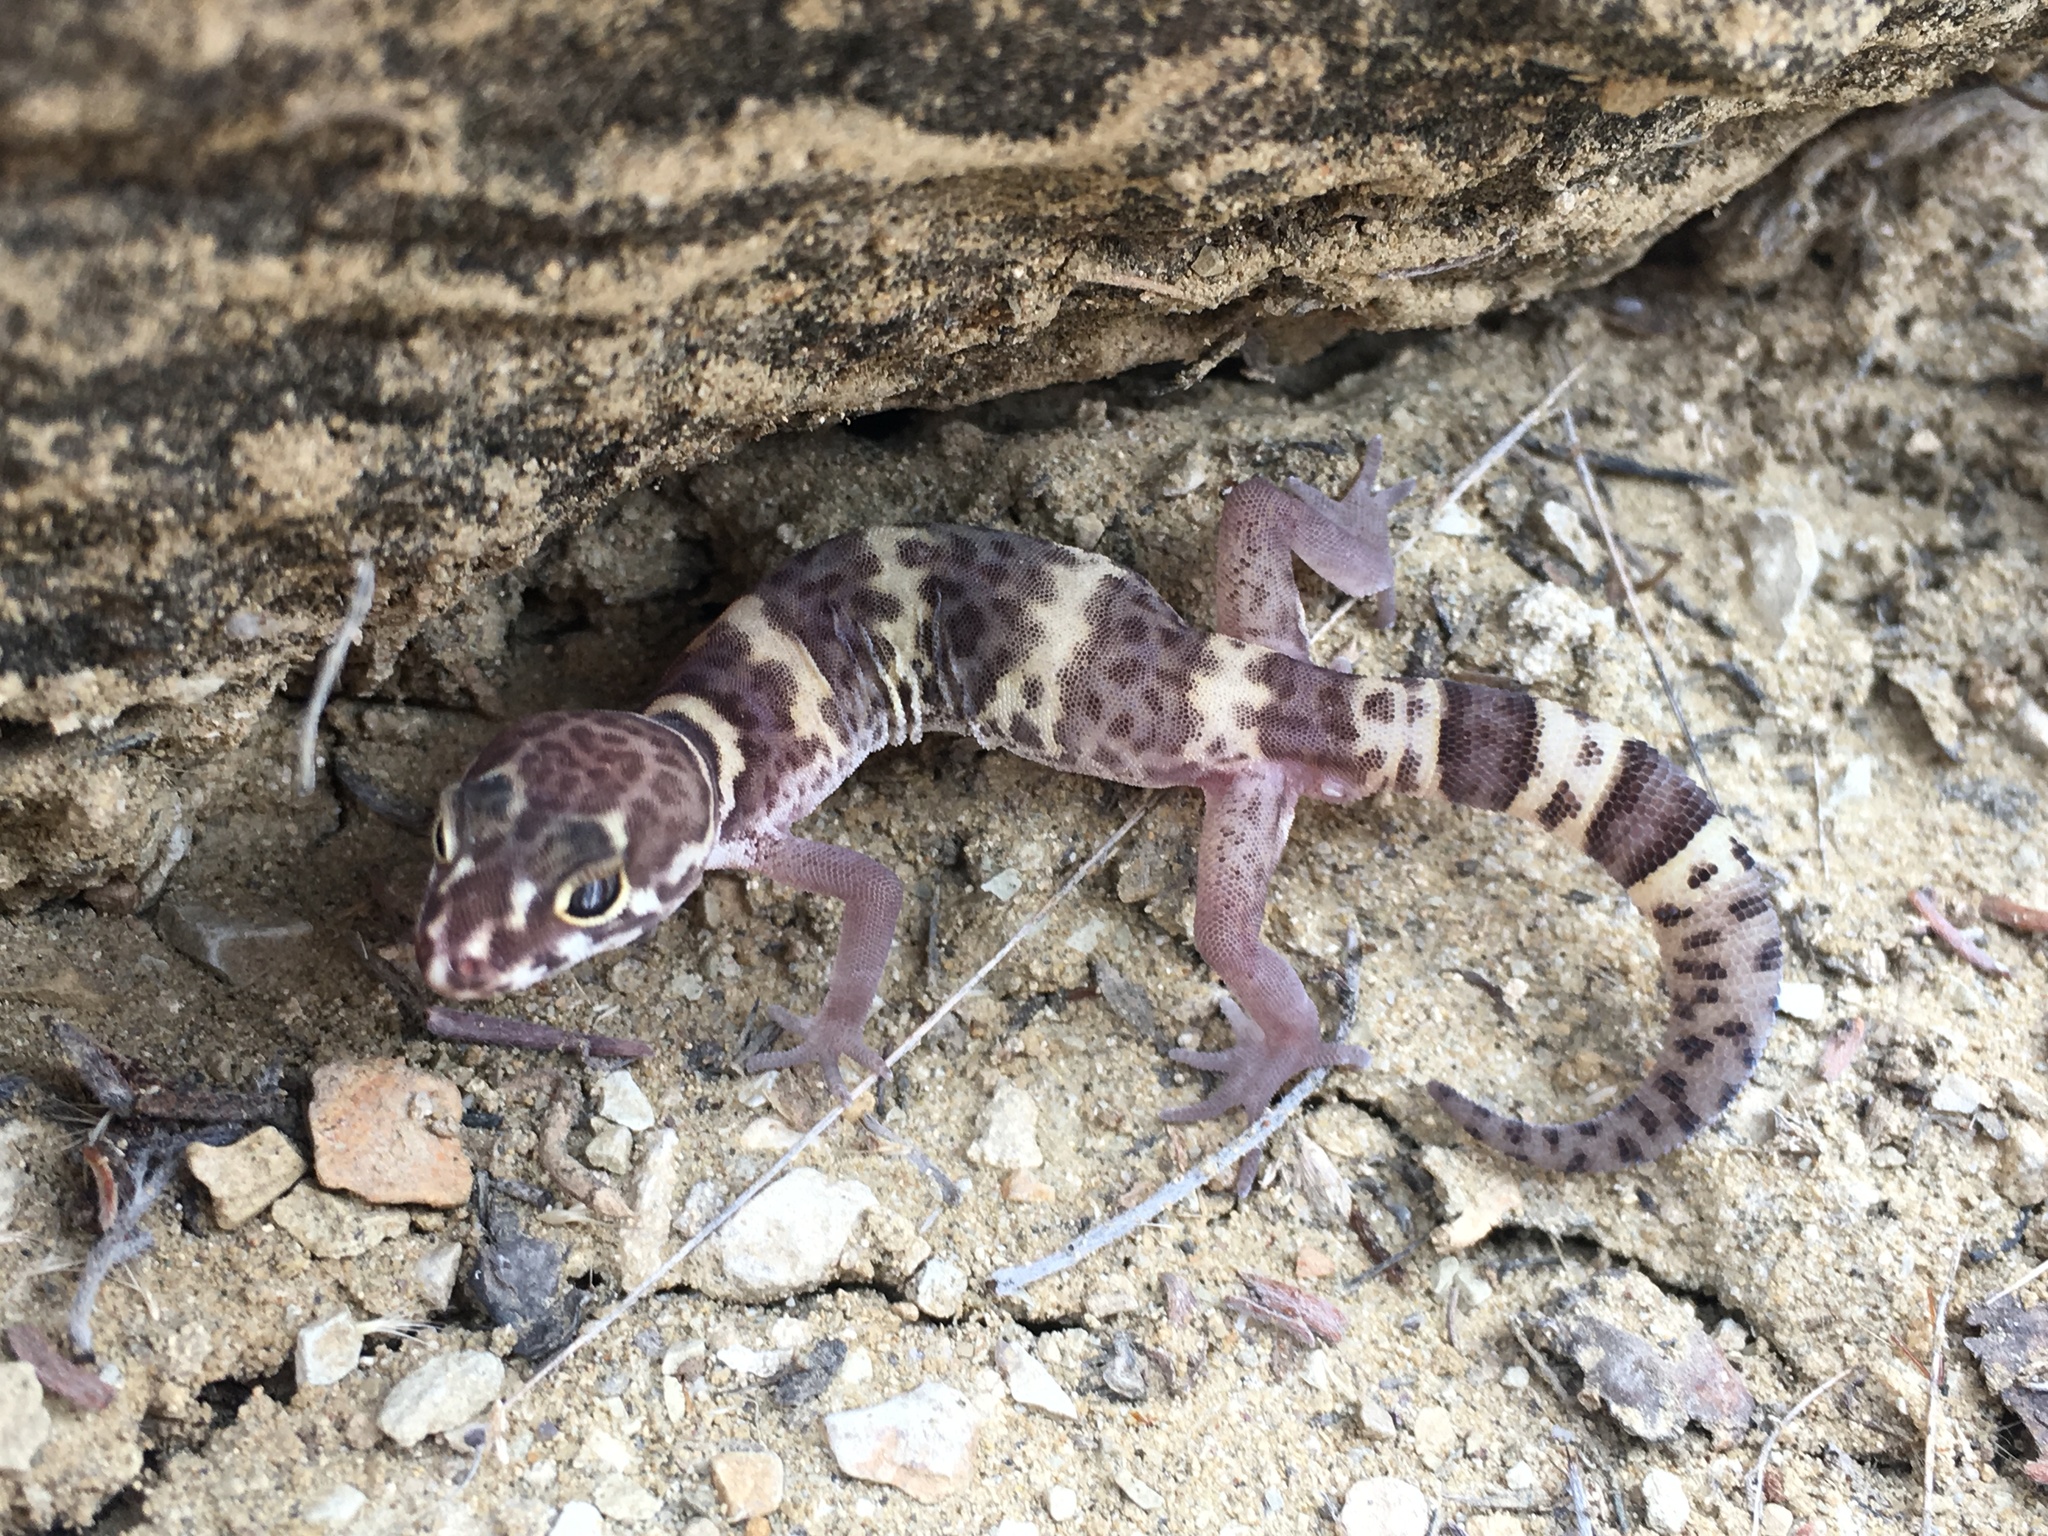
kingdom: Animalia
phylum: Chordata
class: Squamata
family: Eublepharidae
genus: Coleonyx
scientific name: Coleonyx brevis
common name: Texas banded gecko
